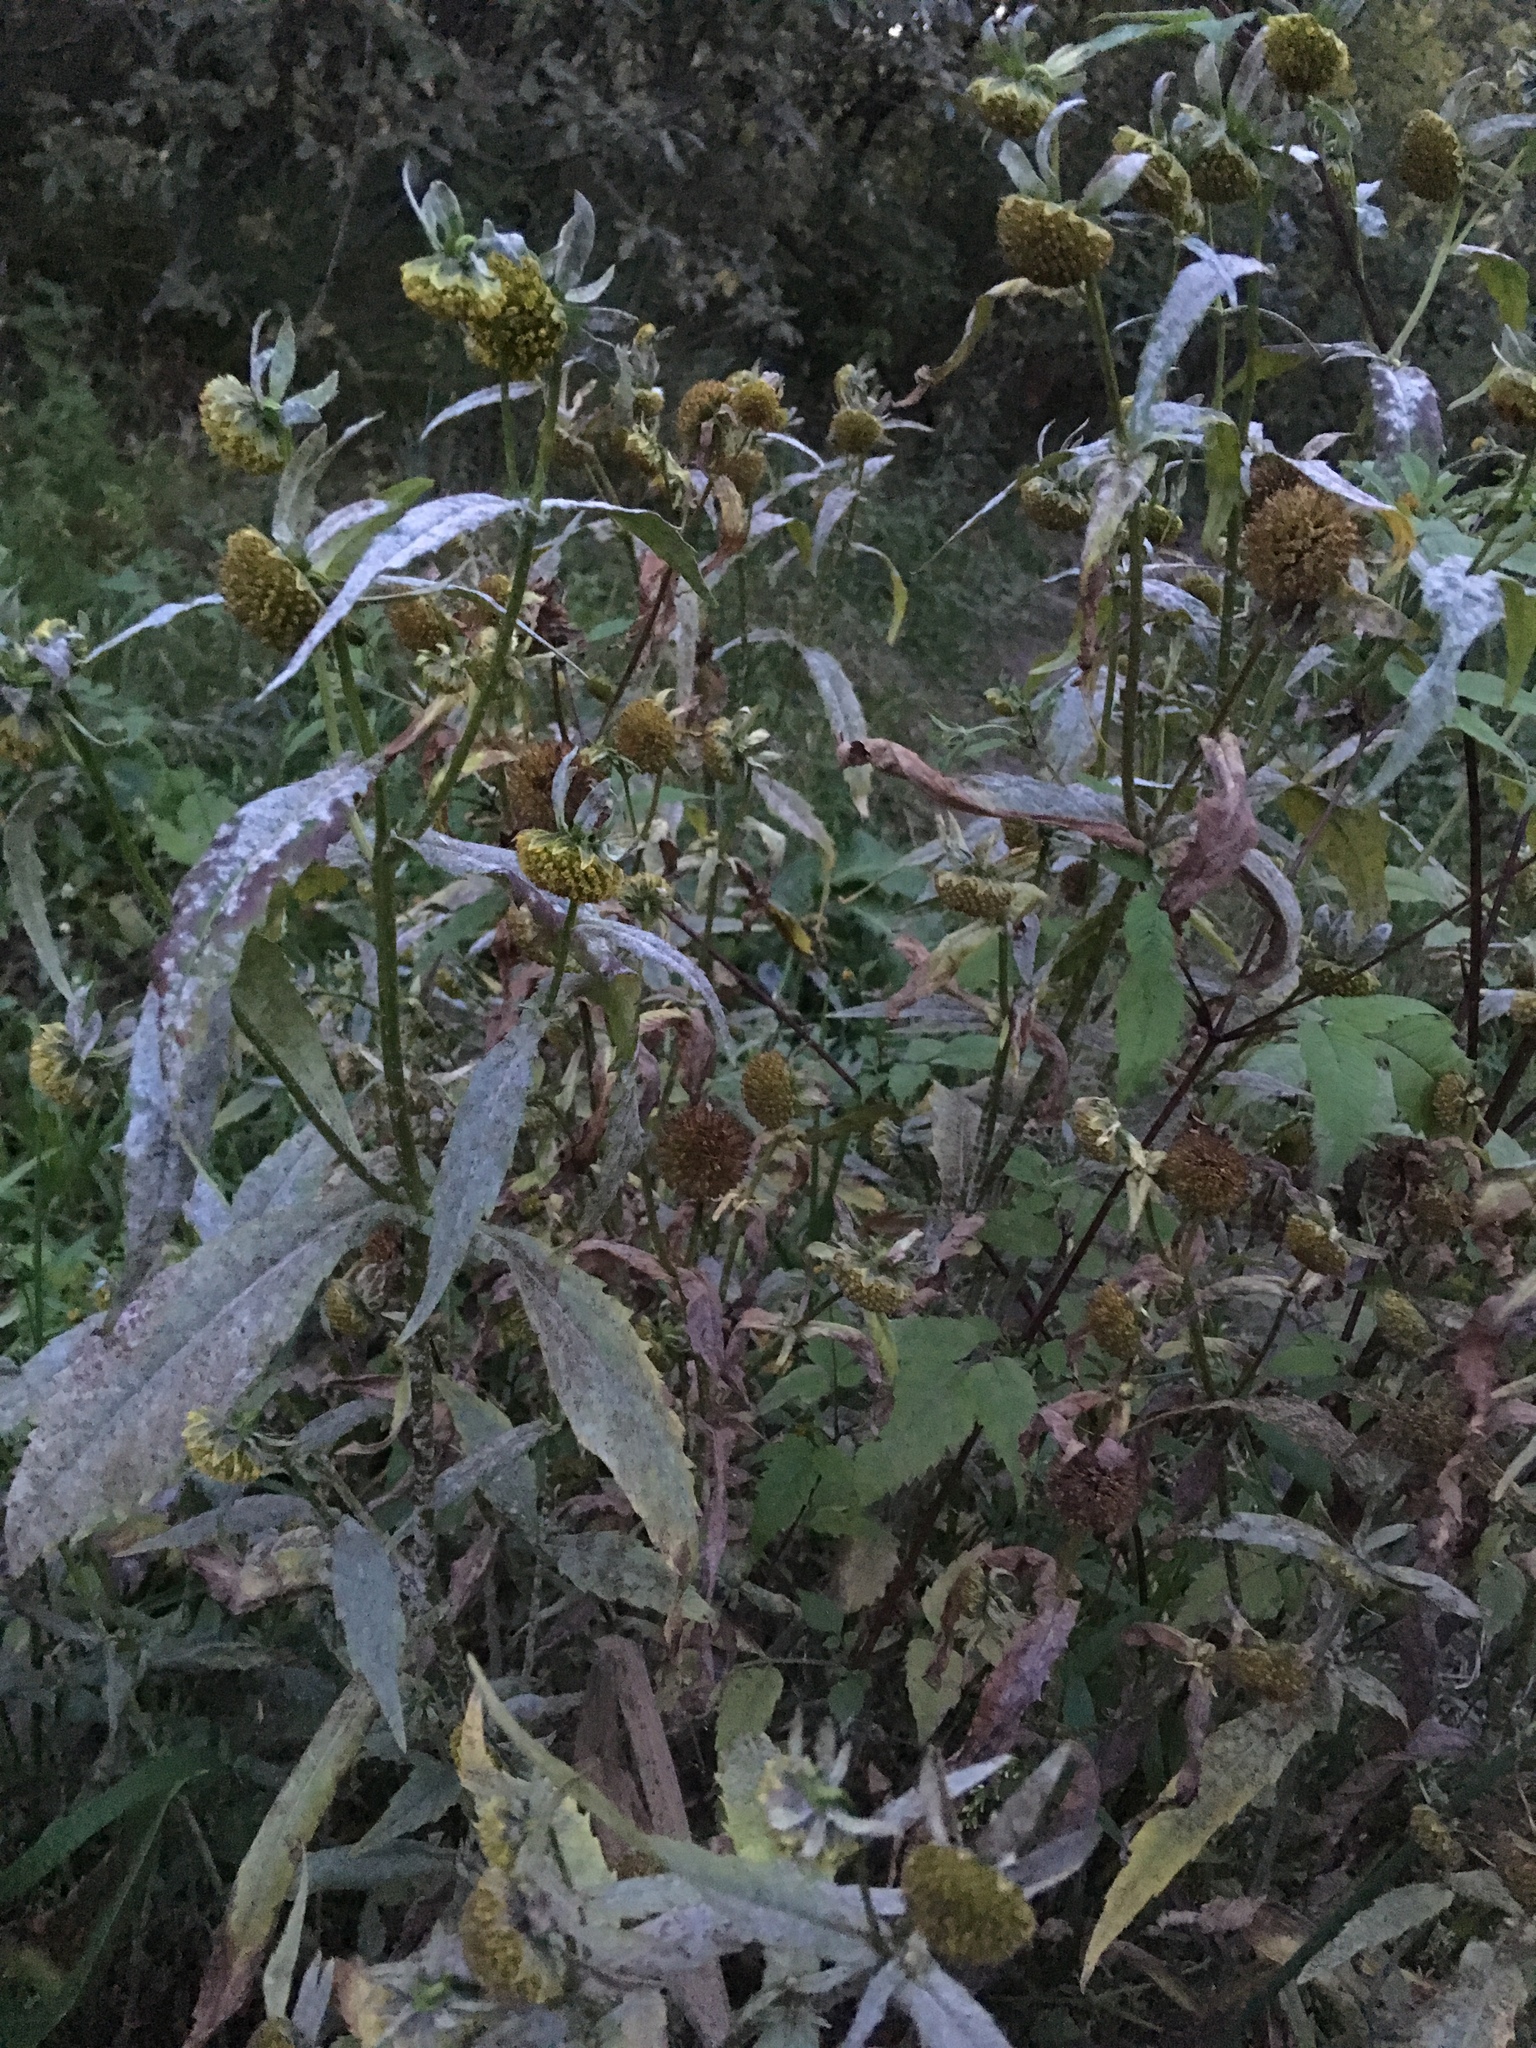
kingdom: Plantae
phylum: Tracheophyta
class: Magnoliopsida
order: Asterales
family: Asteraceae
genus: Bidens
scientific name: Bidens cernua
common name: Nodding bur-marigold
